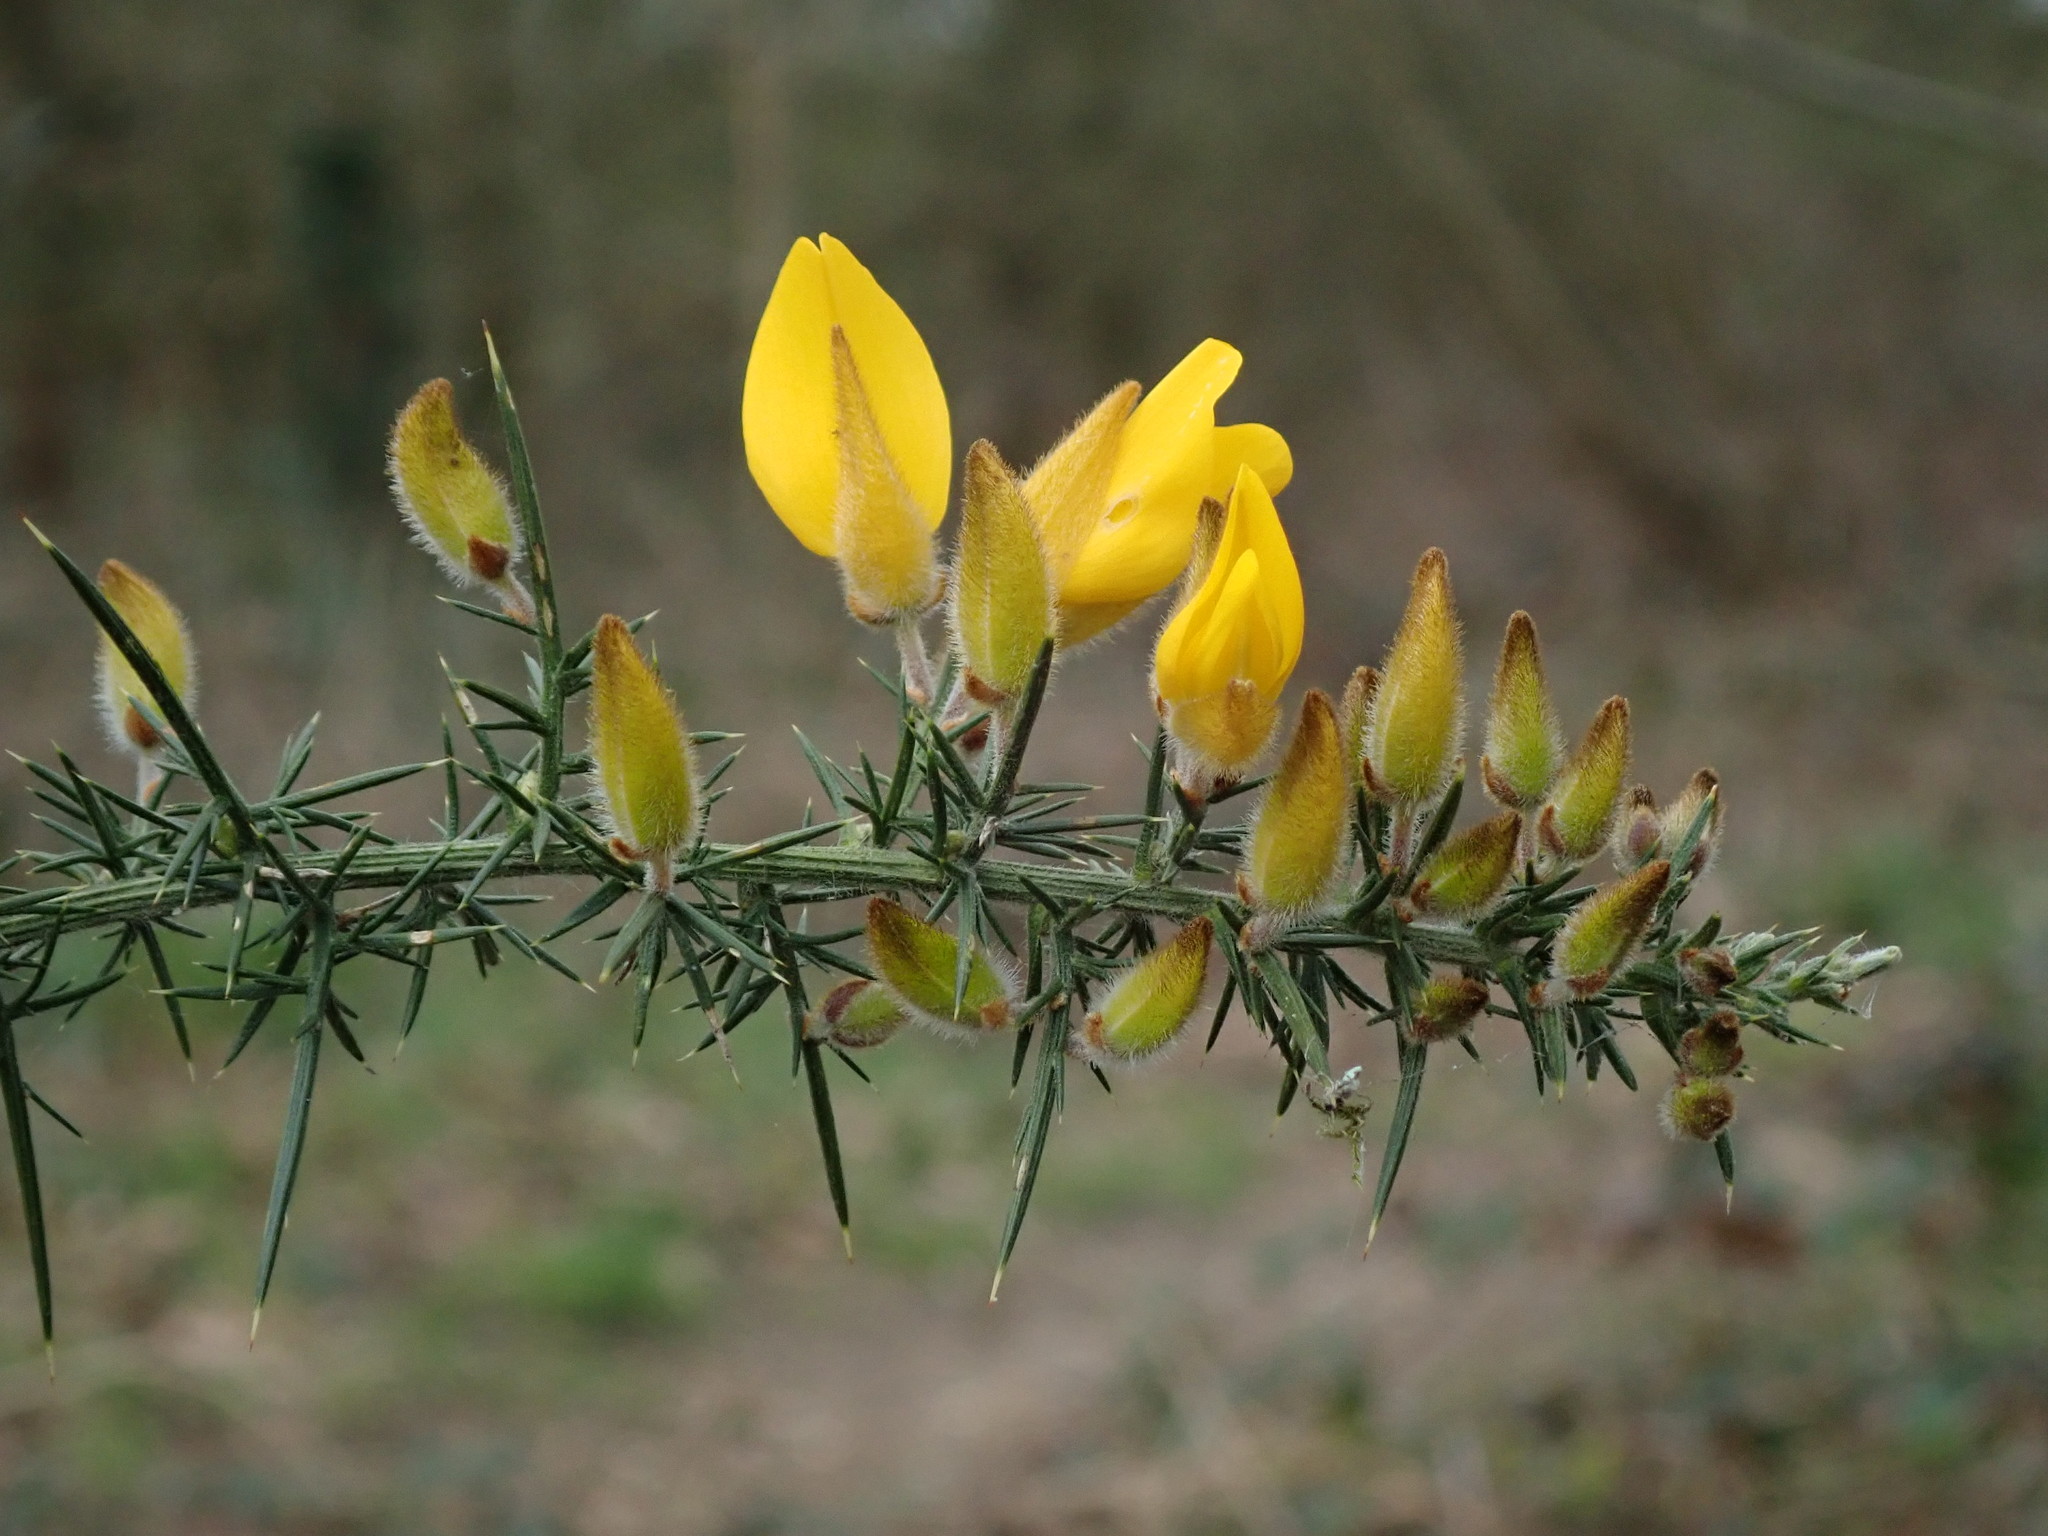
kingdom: Plantae
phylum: Tracheophyta
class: Magnoliopsida
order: Fabales
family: Fabaceae
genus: Ulex
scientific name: Ulex europaeus
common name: Common gorse
